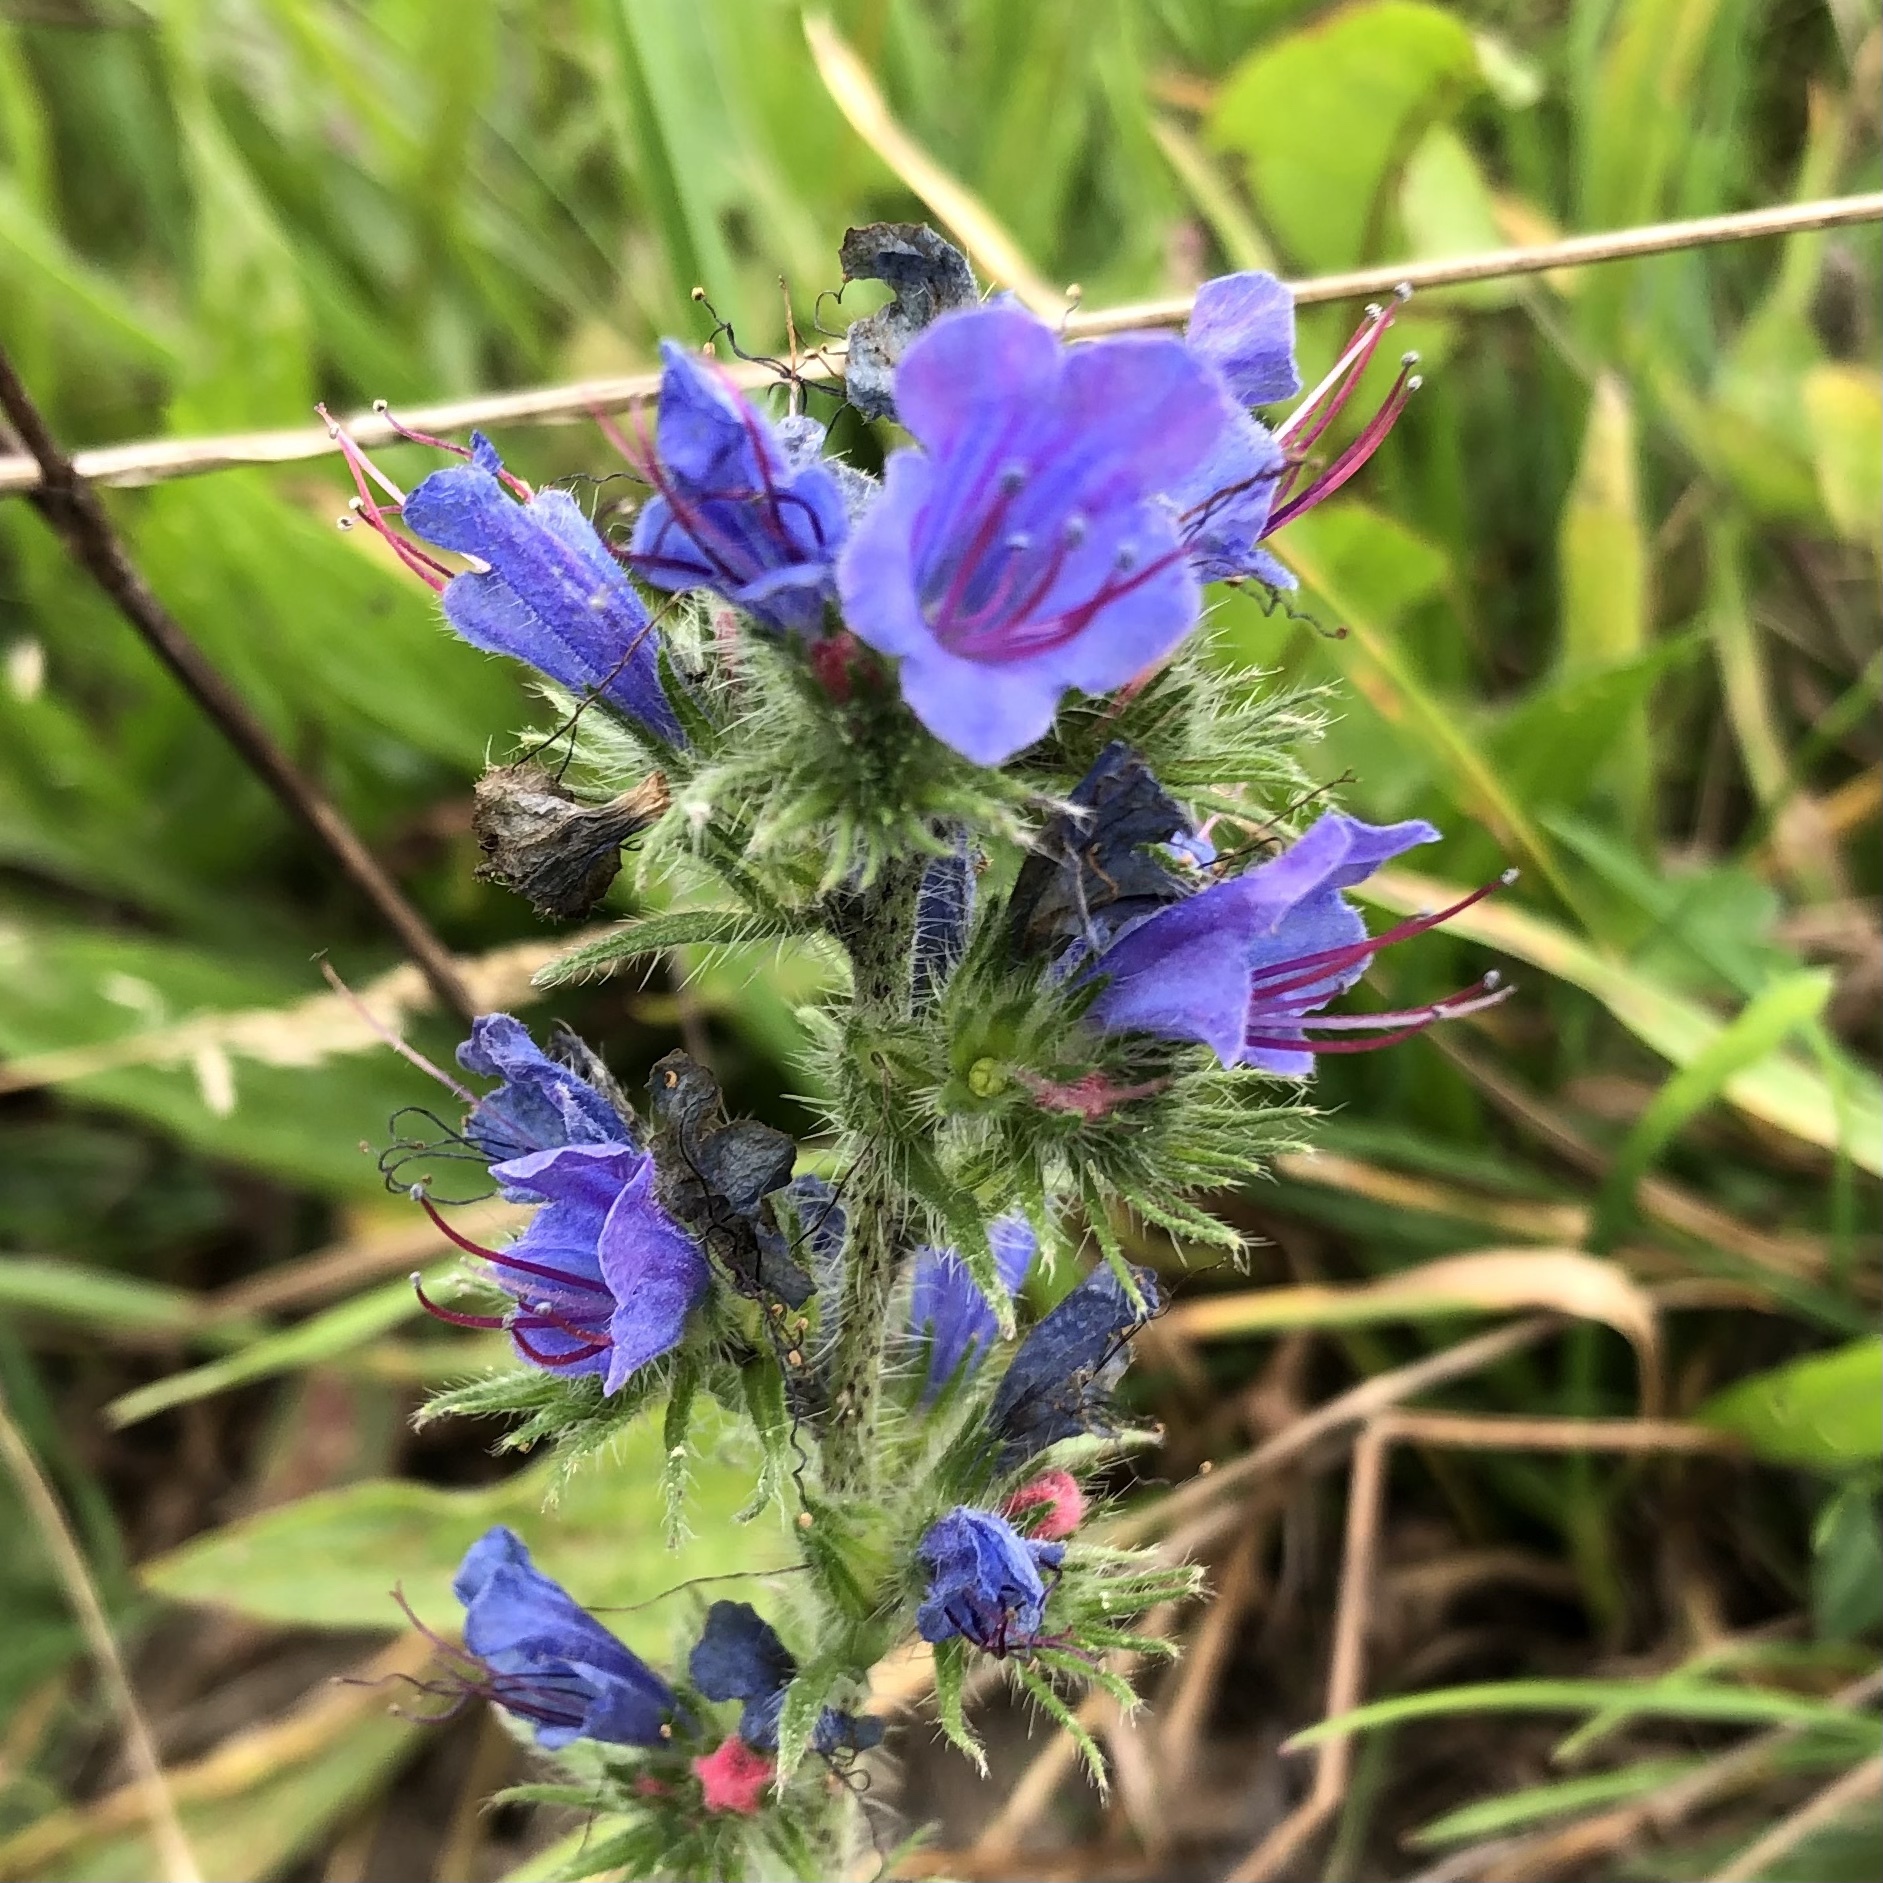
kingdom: Plantae
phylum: Tracheophyta
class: Magnoliopsida
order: Boraginales
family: Boraginaceae
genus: Echium
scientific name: Echium vulgare
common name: Common viper's bugloss
